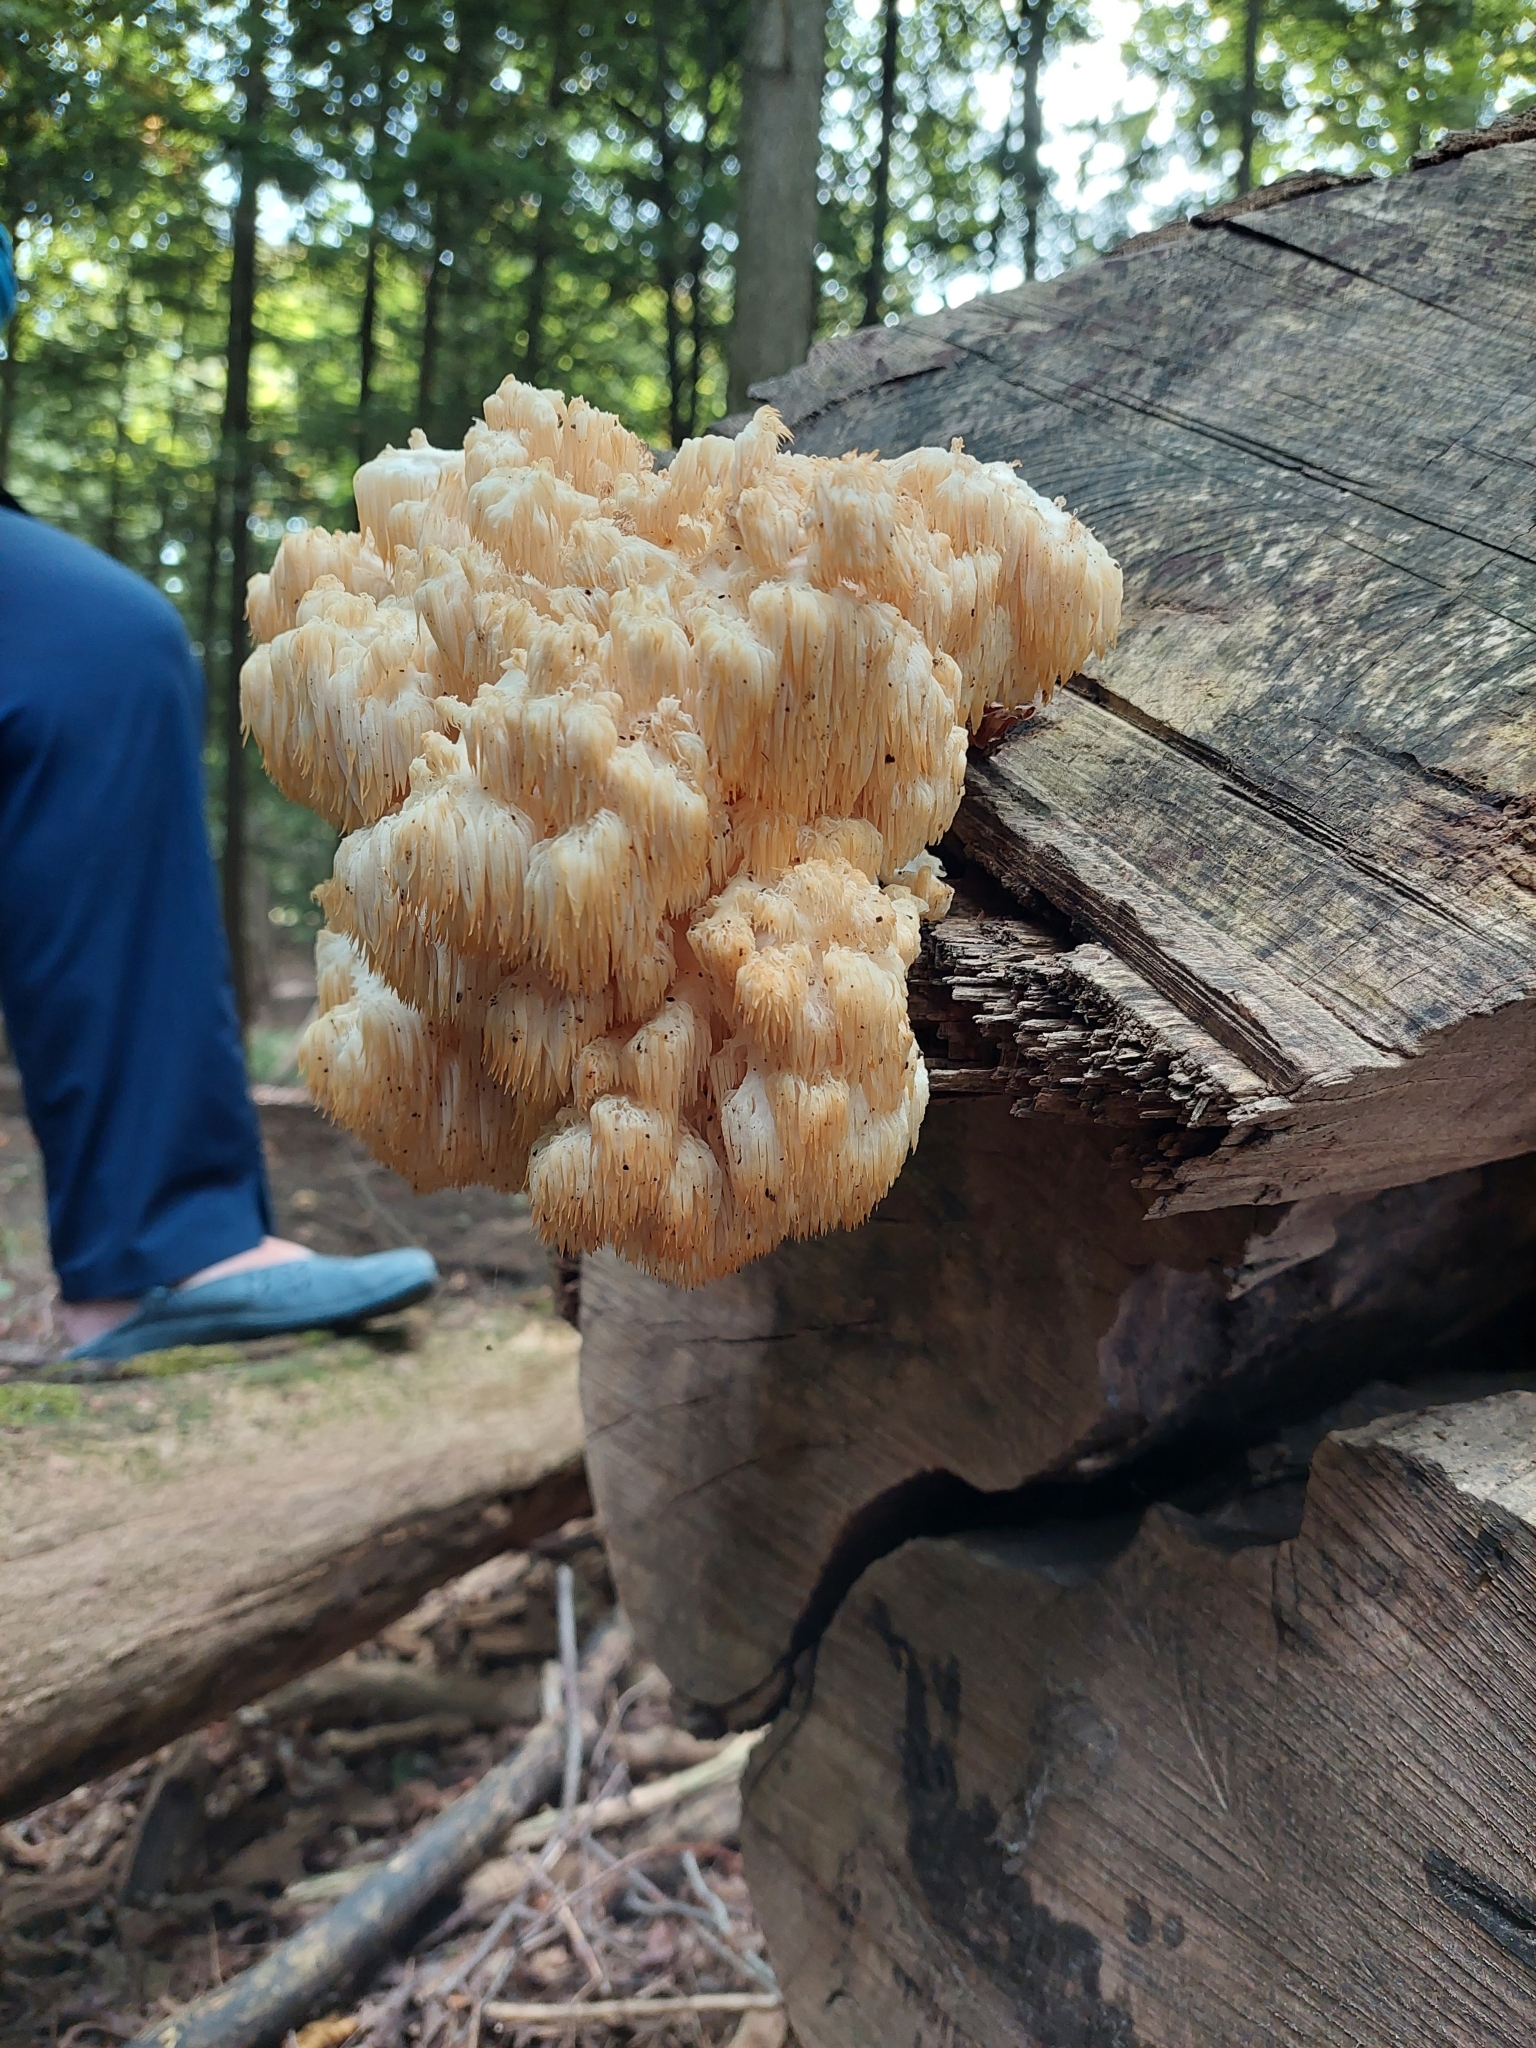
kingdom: Fungi
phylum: Basidiomycota
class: Agaricomycetes
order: Russulales
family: Hericiaceae
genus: Hericium
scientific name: Hericium americanum
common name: Bear's head tooth
